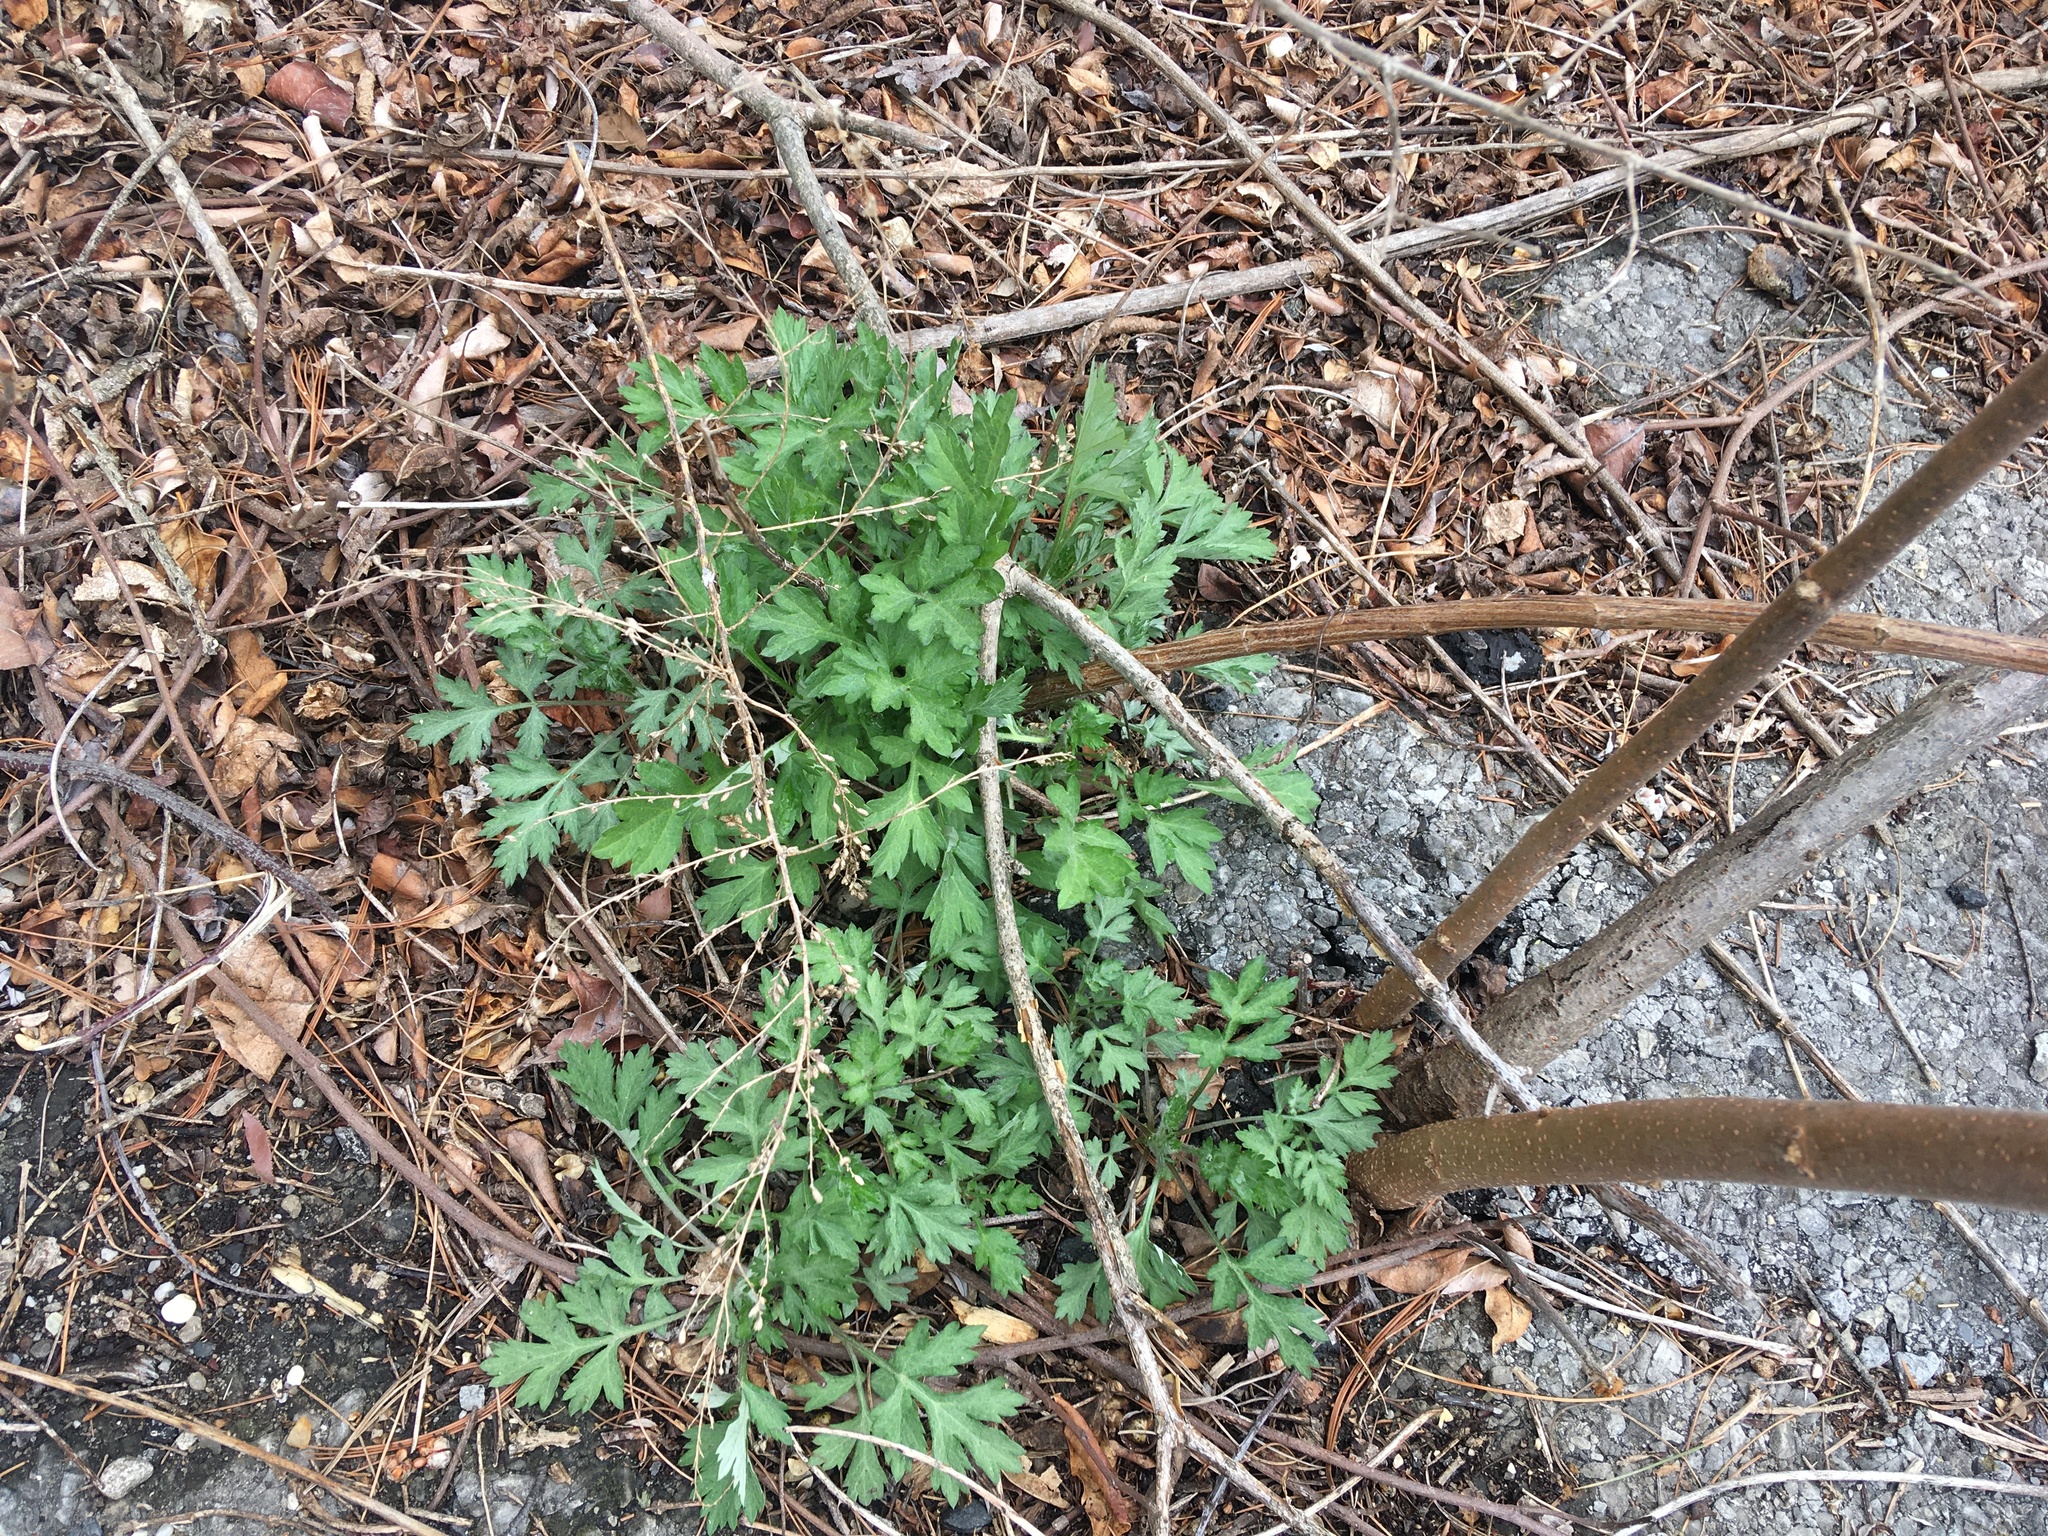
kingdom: Plantae
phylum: Tracheophyta
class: Magnoliopsida
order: Asterales
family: Asteraceae
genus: Artemisia
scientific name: Artemisia vulgaris
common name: Mugwort
